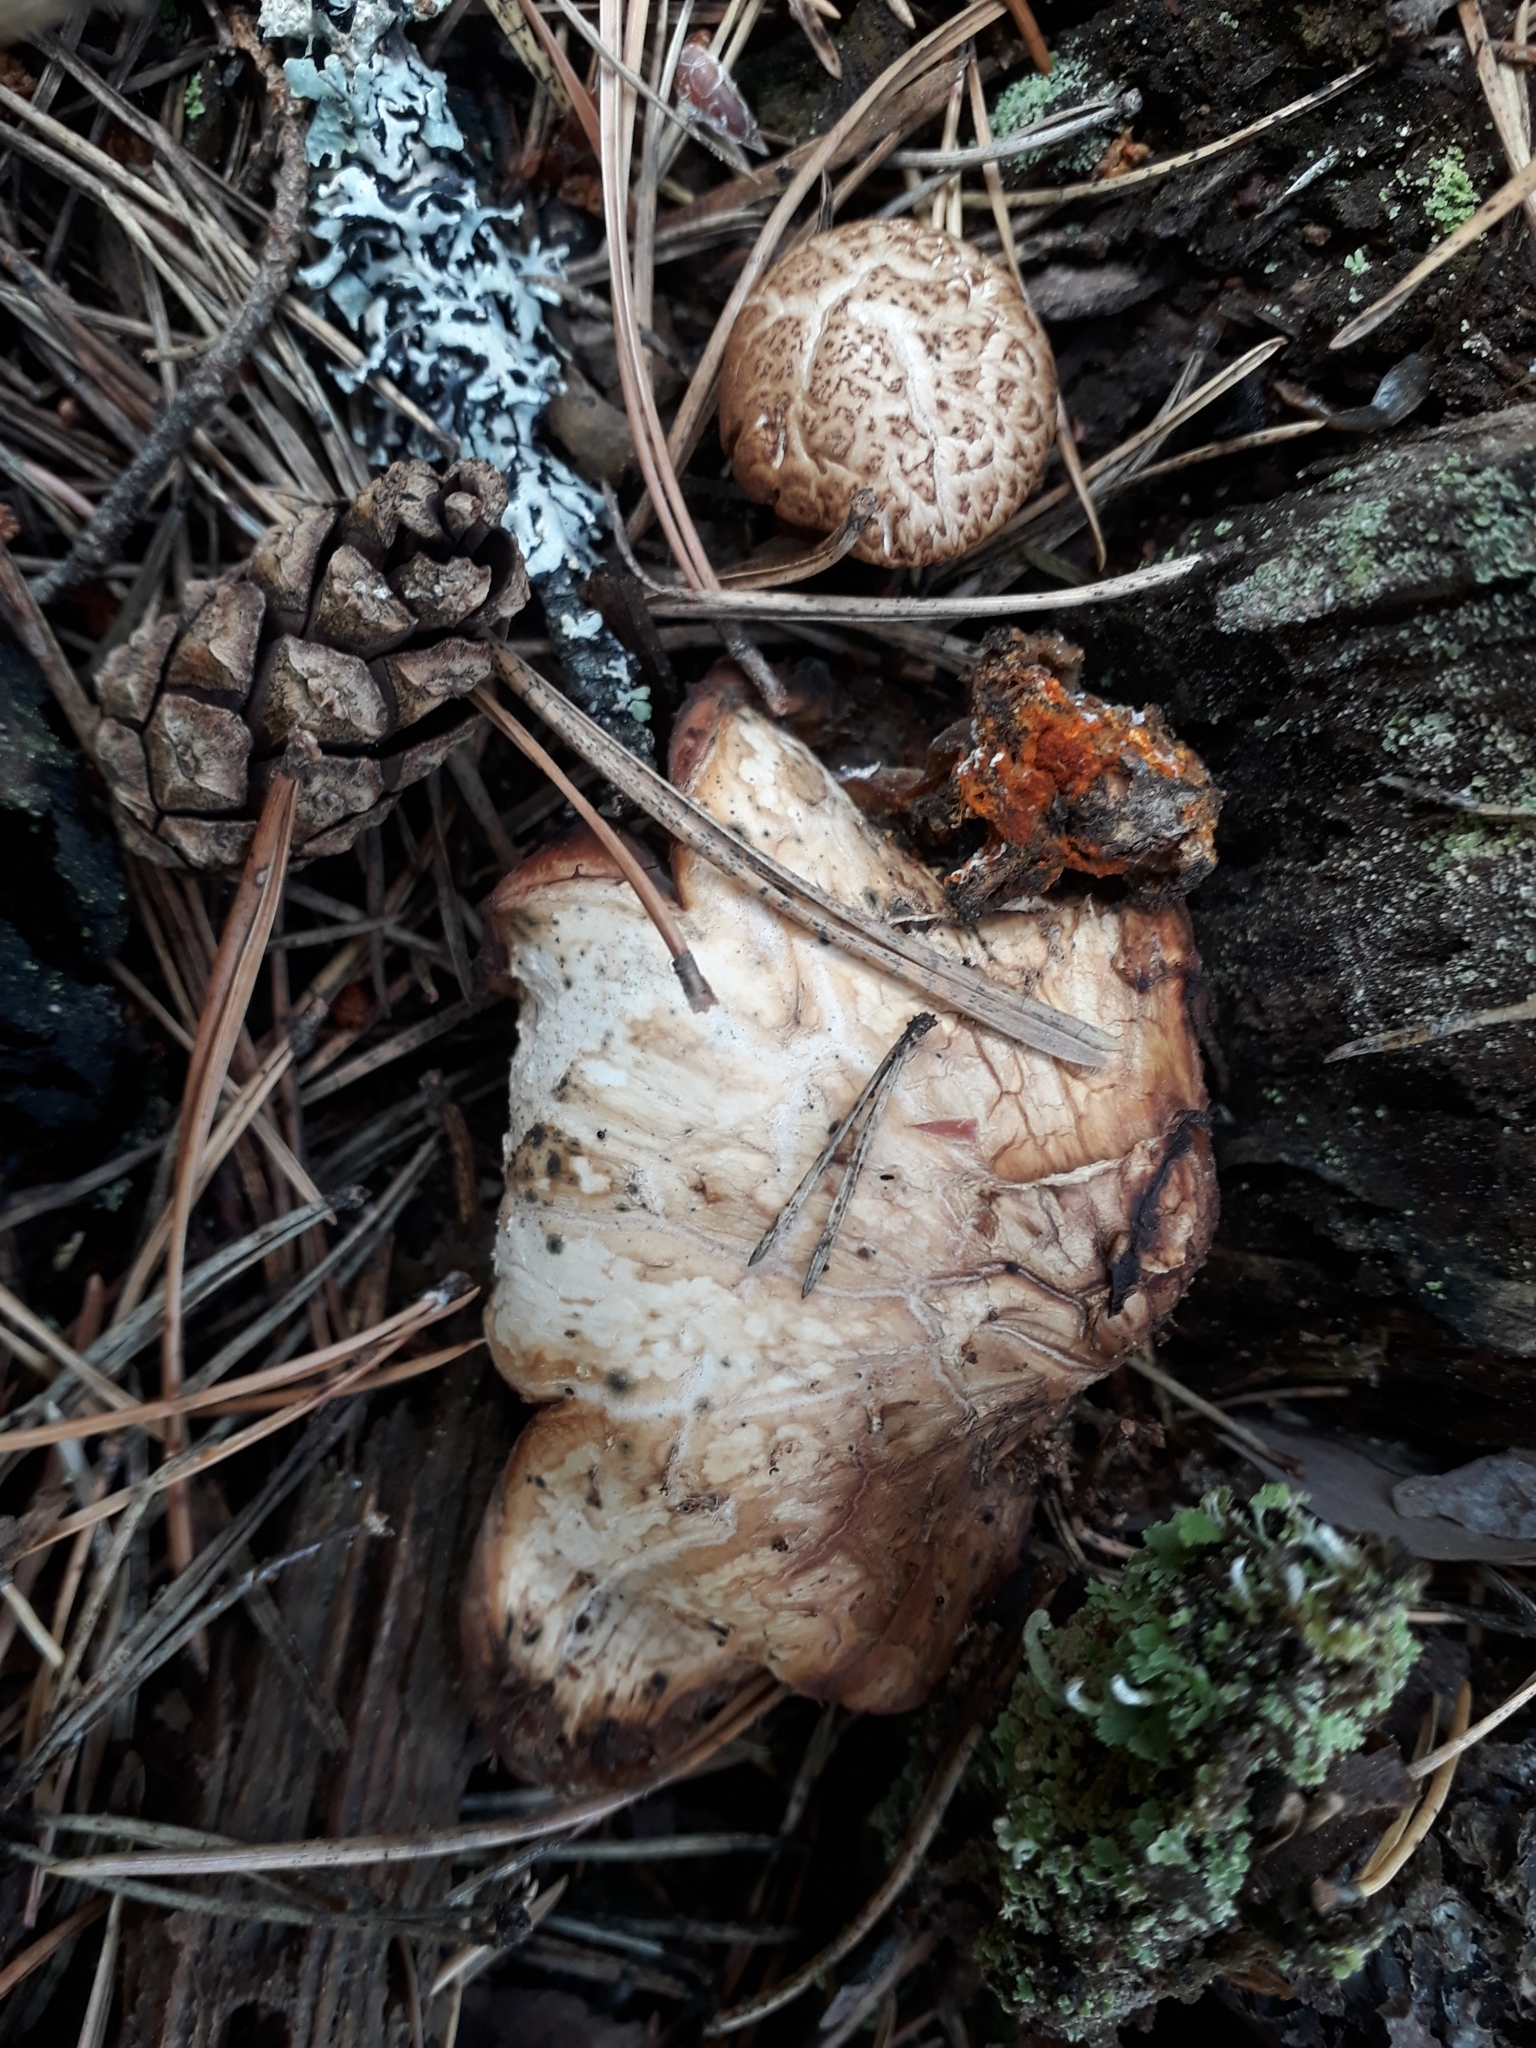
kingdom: Fungi
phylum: Basidiomycota
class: Agaricomycetes
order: Gloeophyllales
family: Gloeophyllaceae
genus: Neolentinus
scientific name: Neolentinus lepideus
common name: Scaly sawgill
